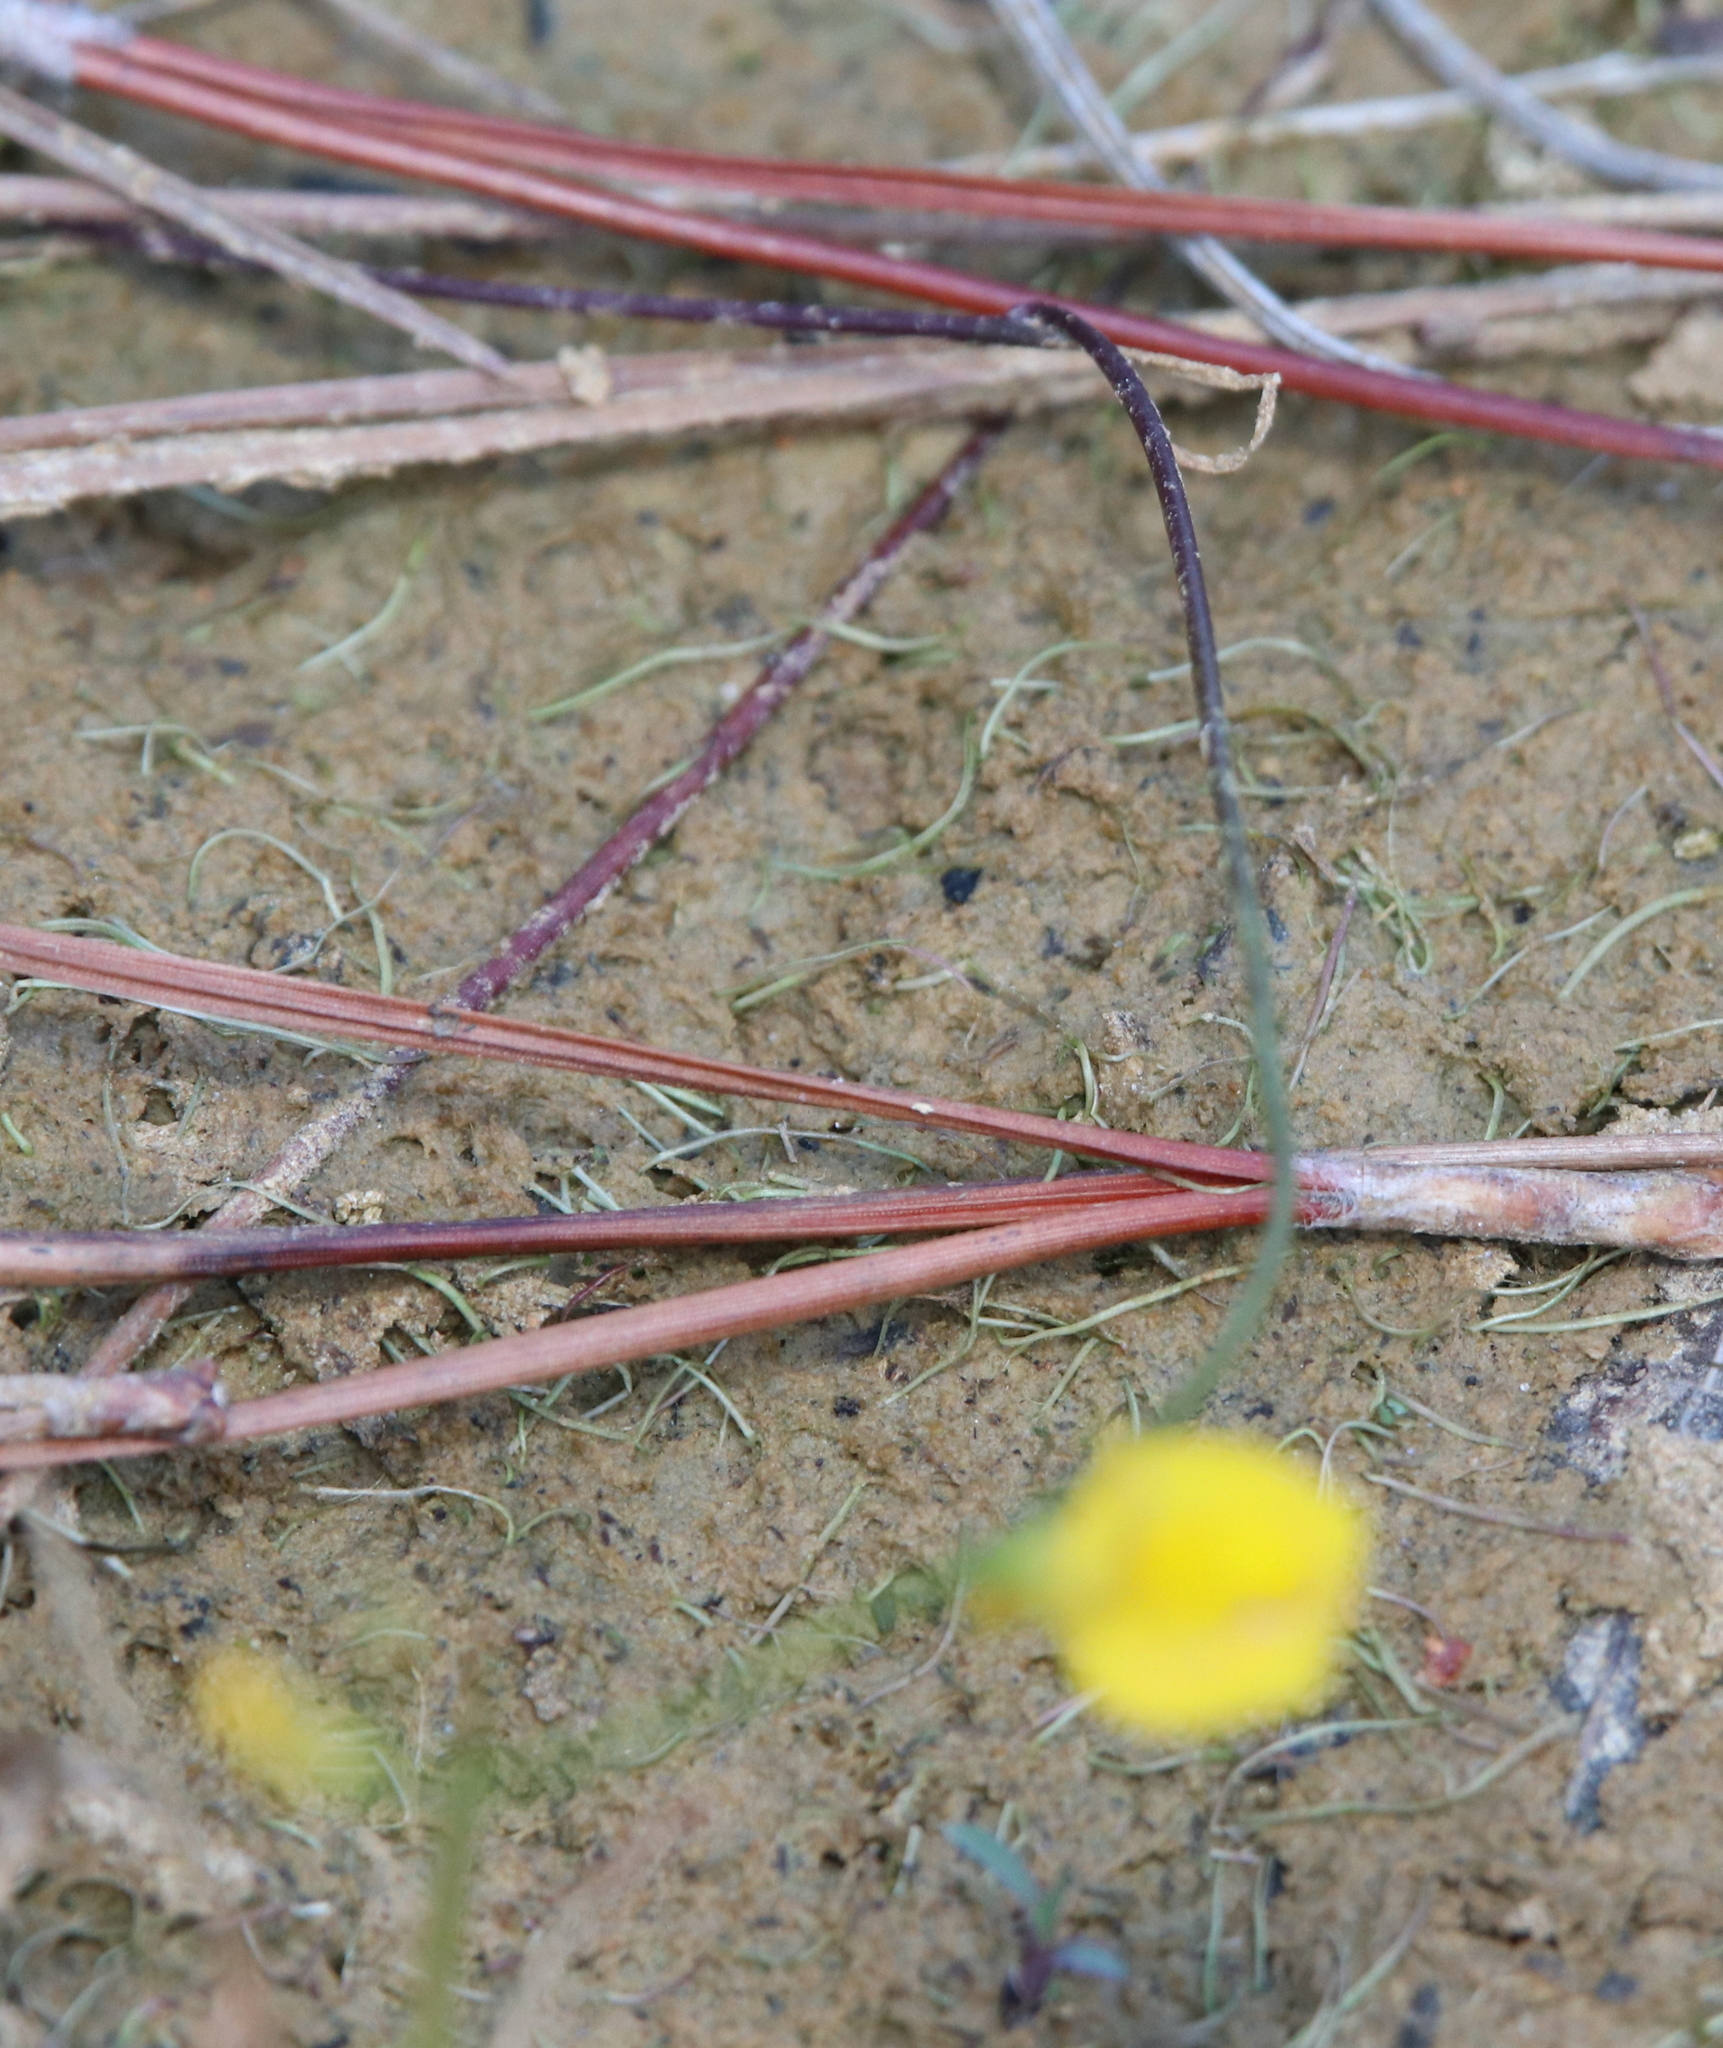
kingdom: Plantae
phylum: Tracheophyta
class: Magnoliopsida
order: Lamiales
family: Lentibulariaceae
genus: Utricularia
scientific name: Utricularia juncea
